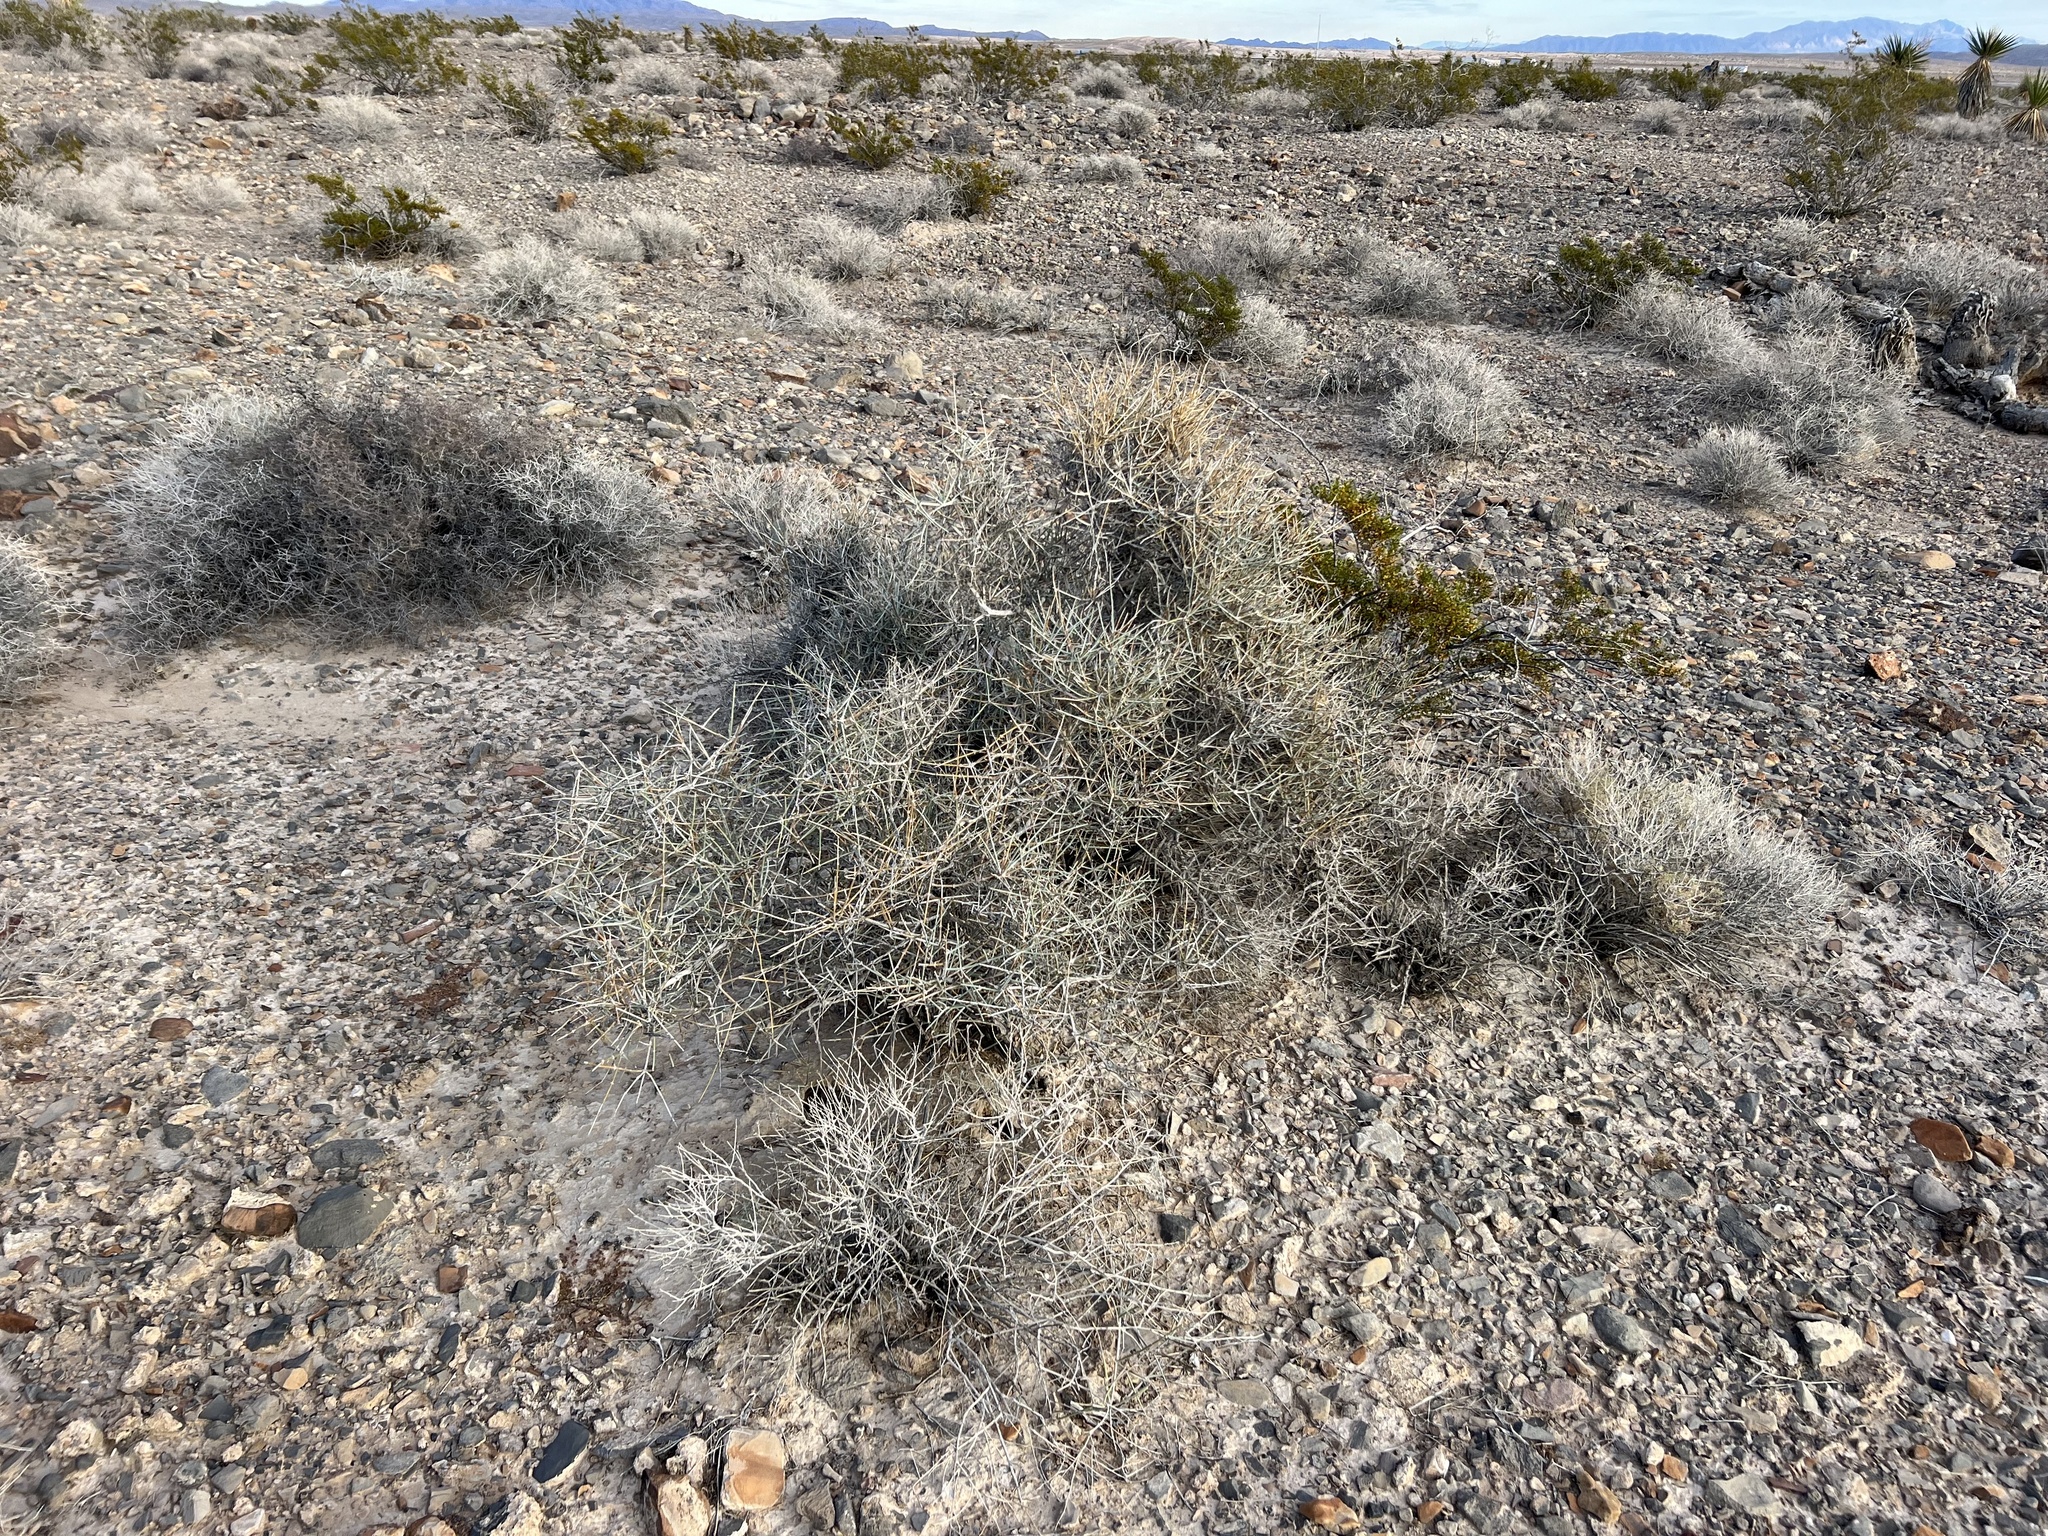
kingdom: Plantae
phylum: Tracheophyta
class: Gnetopsida
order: Ephedrales
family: Ephedraceae
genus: Ephedra
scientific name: Ephedra nevadensis
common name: Gray ephedra
